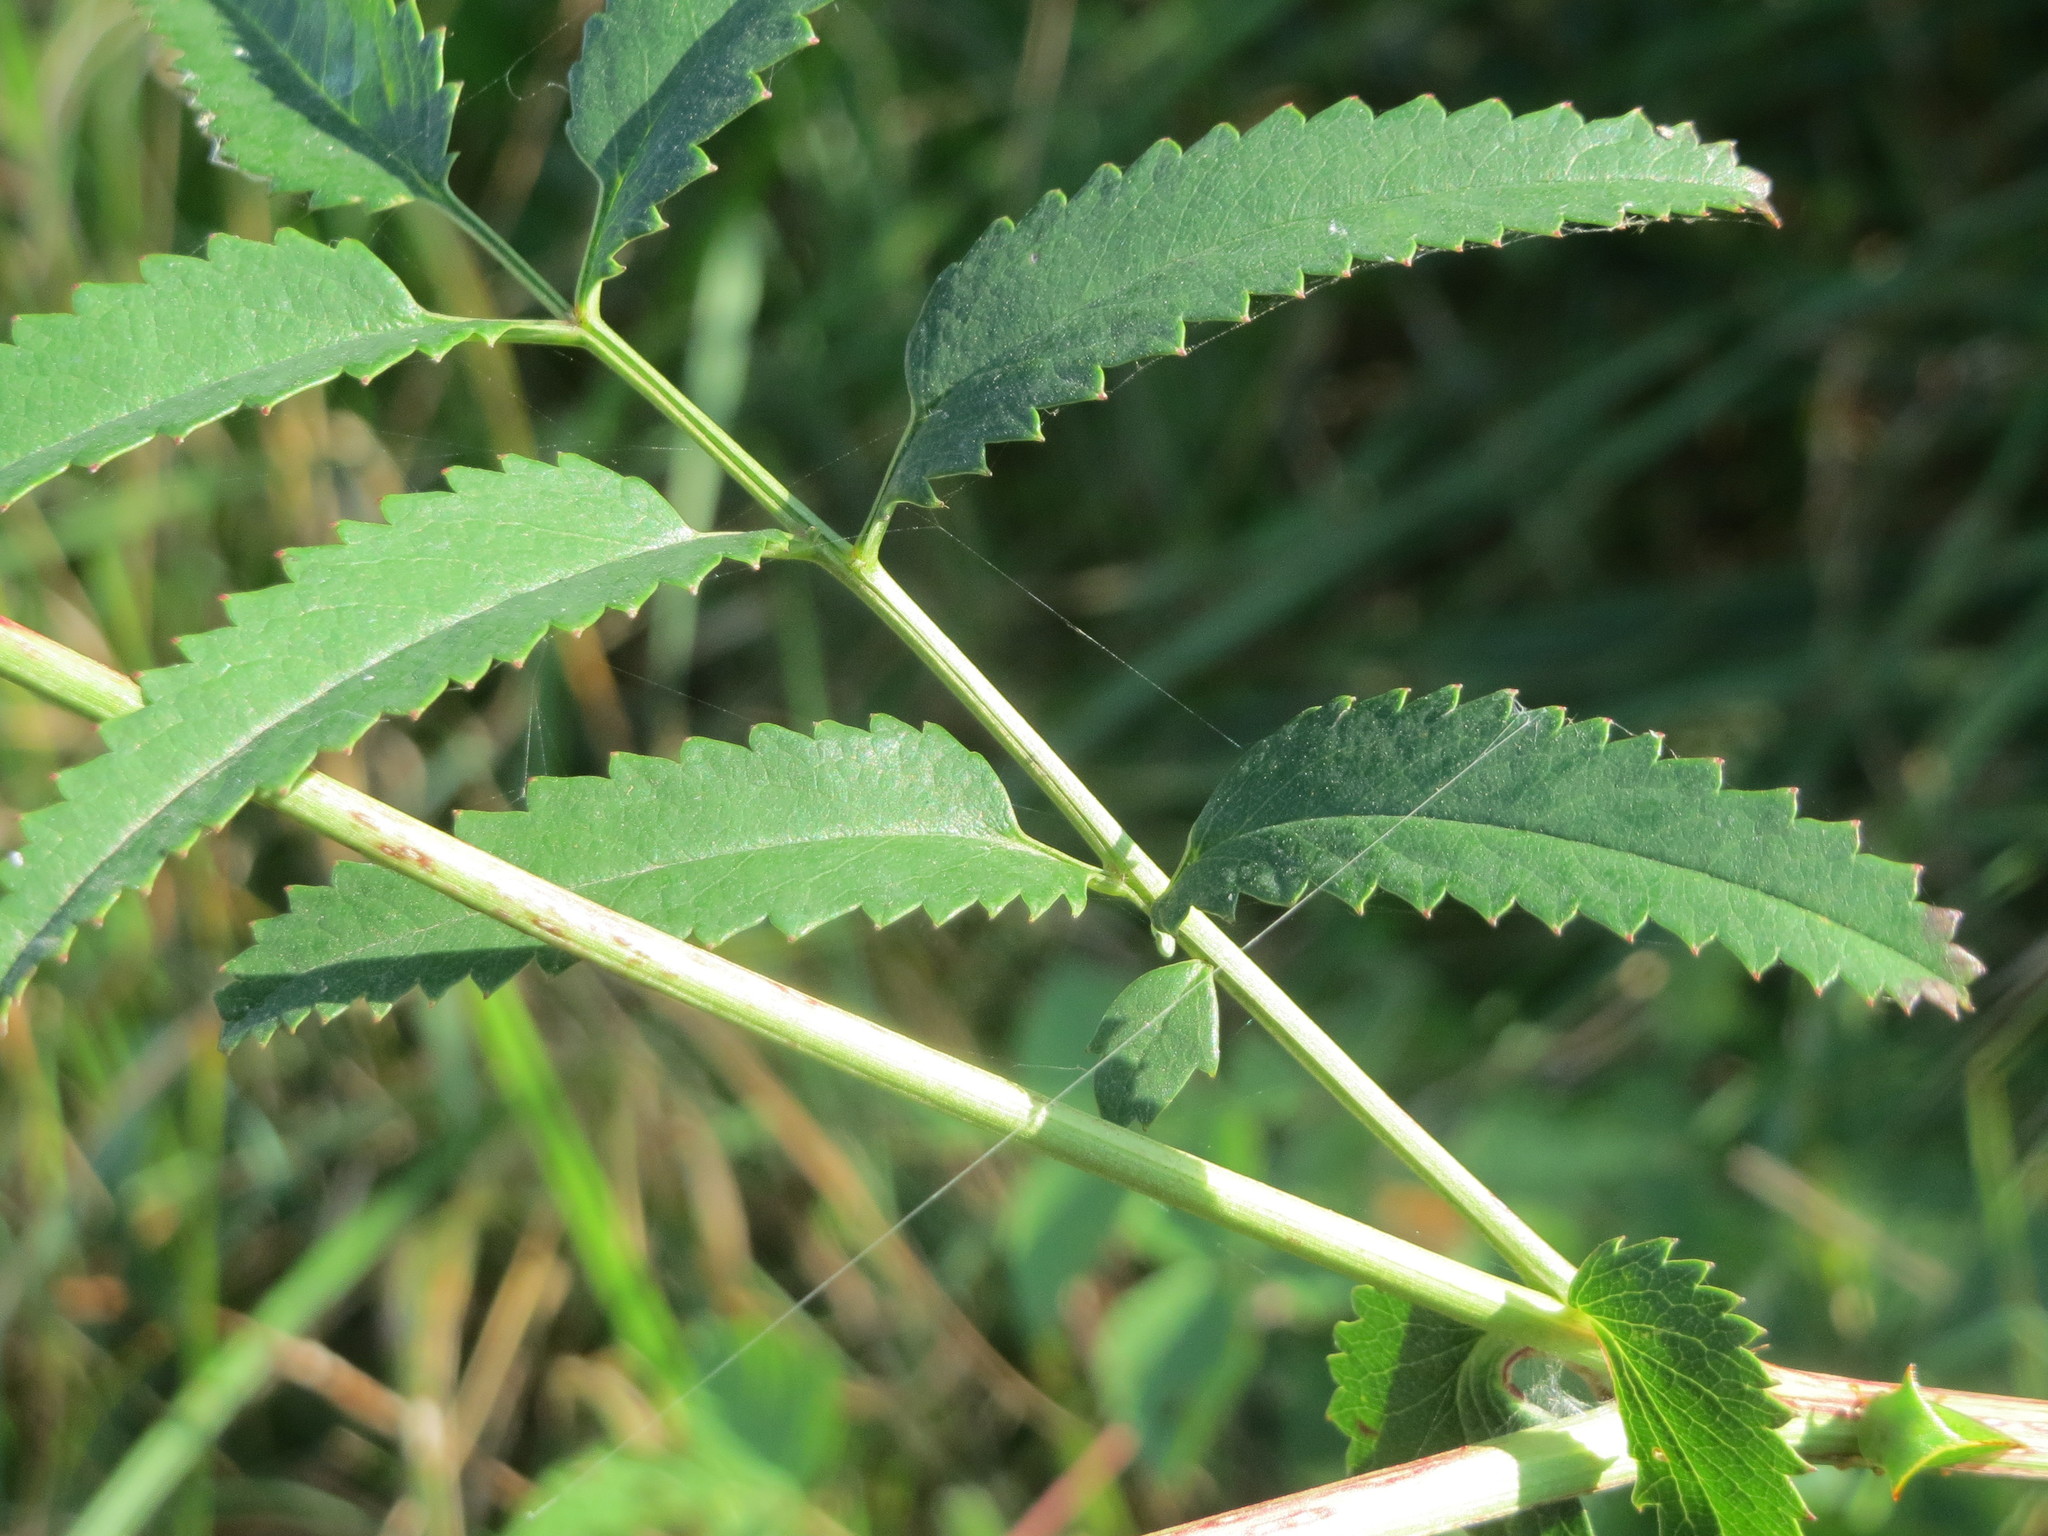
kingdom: Plantae
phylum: Tracheophyta
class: Magnoliopsida
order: Rosales
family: Rosaceae
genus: Sanguisorba
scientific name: Sanguisorba officinalis
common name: Great burnet
